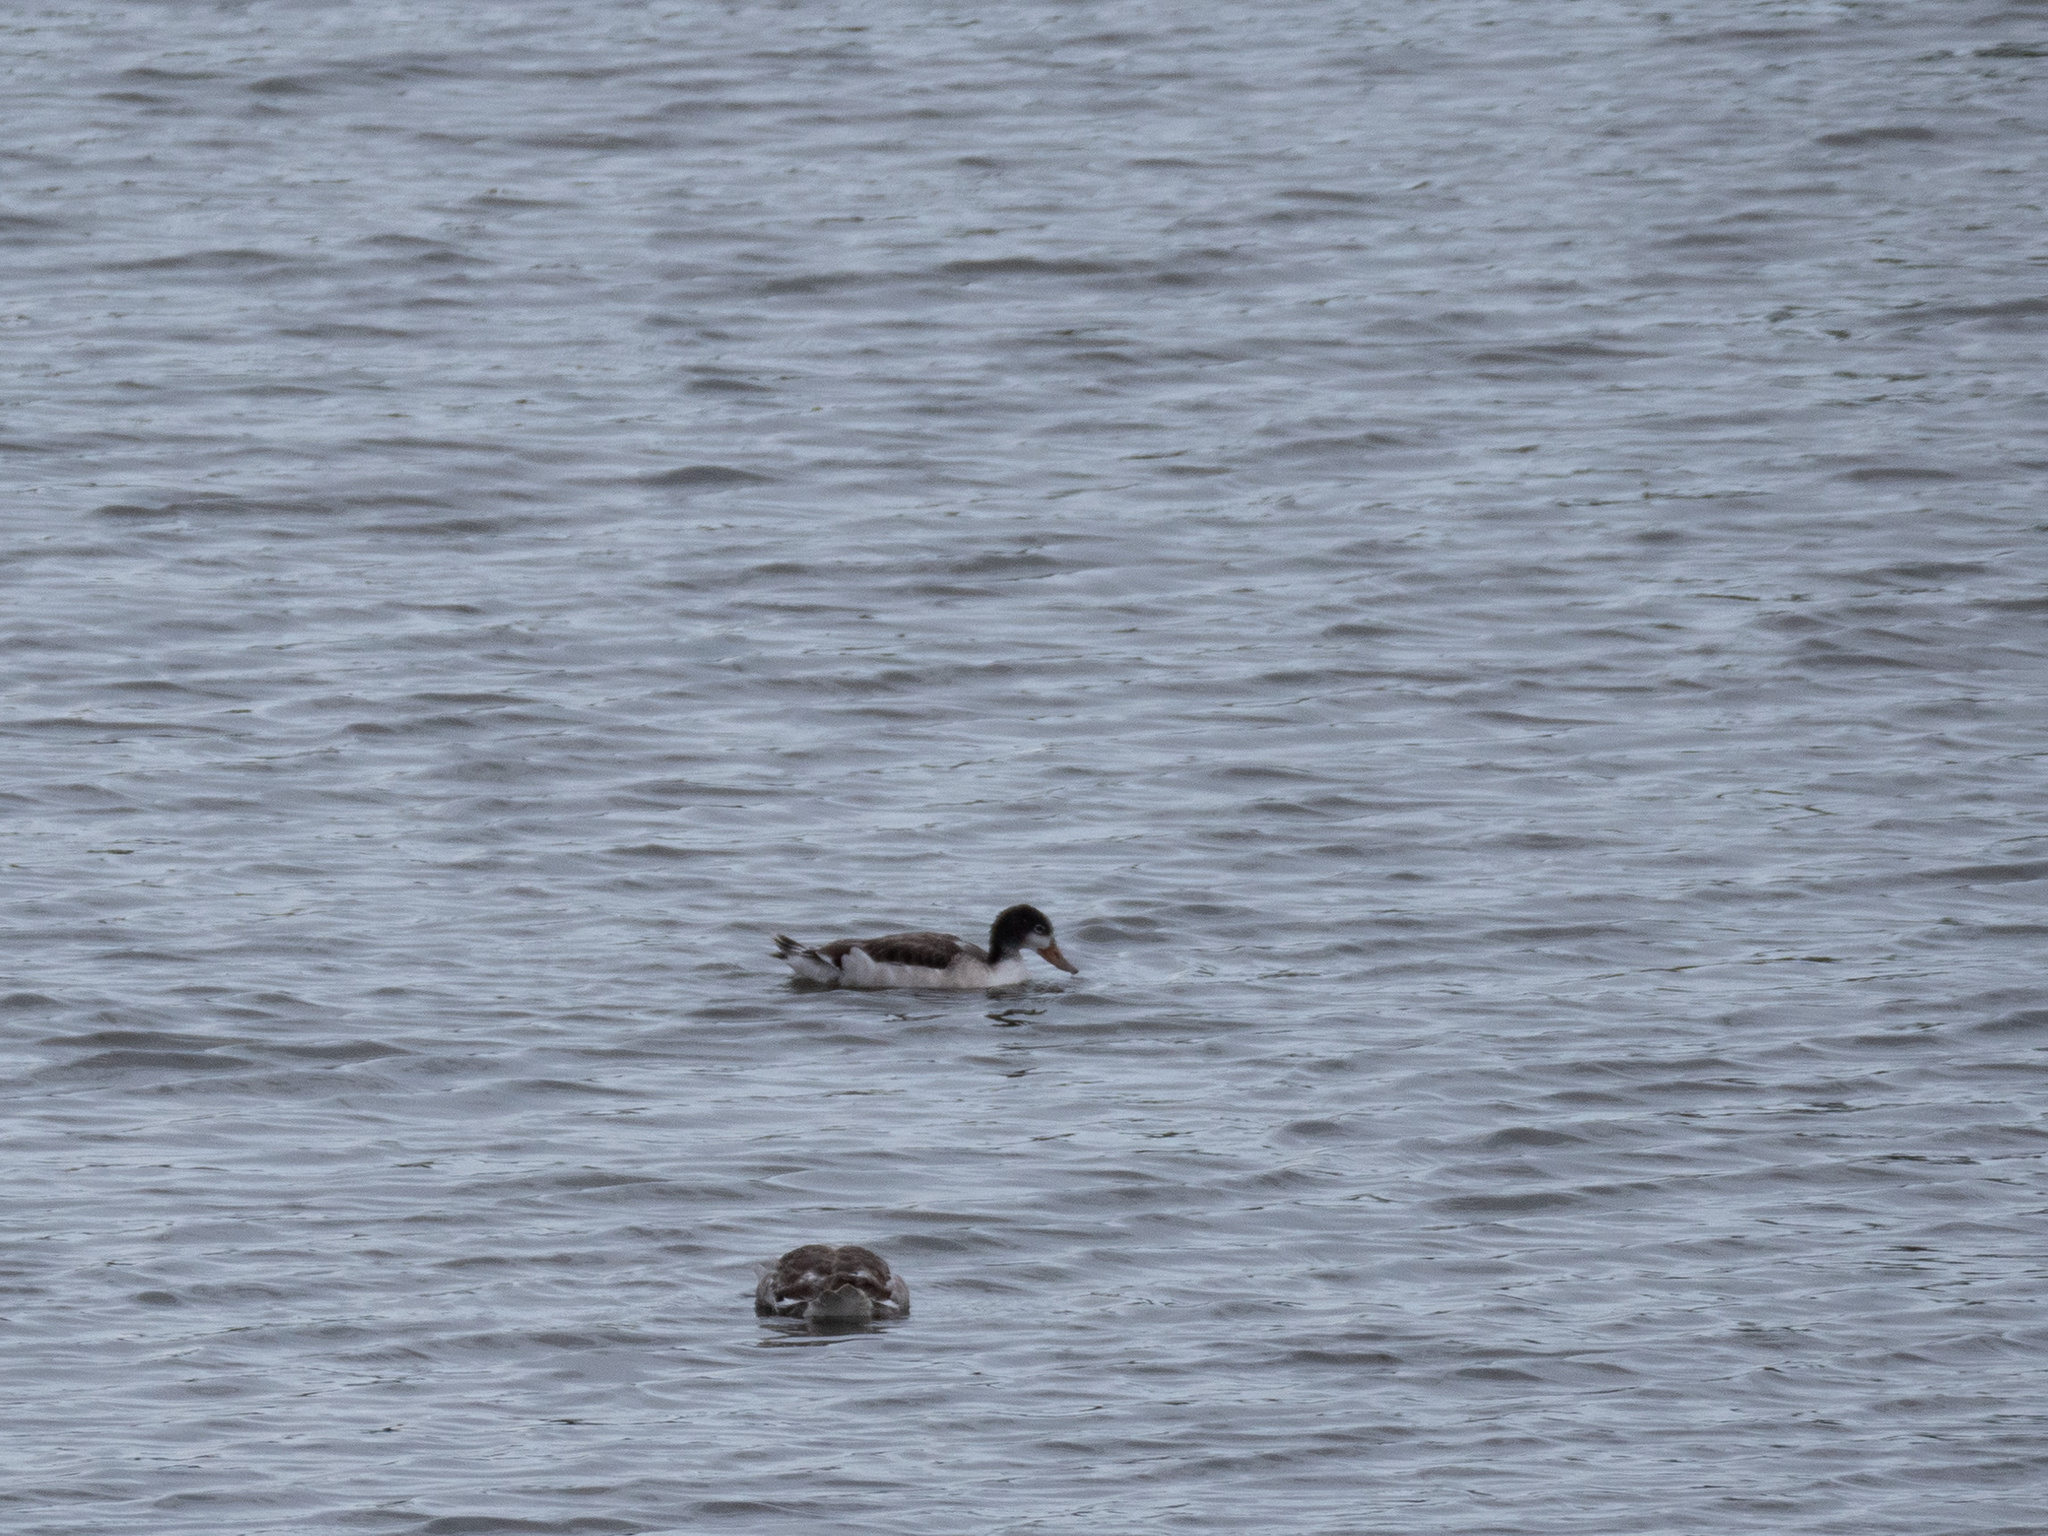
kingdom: Animalia
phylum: Chordata
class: Aves
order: Anseriformes
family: Anatidae
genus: Tadorna
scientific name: Tadorna tadorna
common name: Common shelduck
